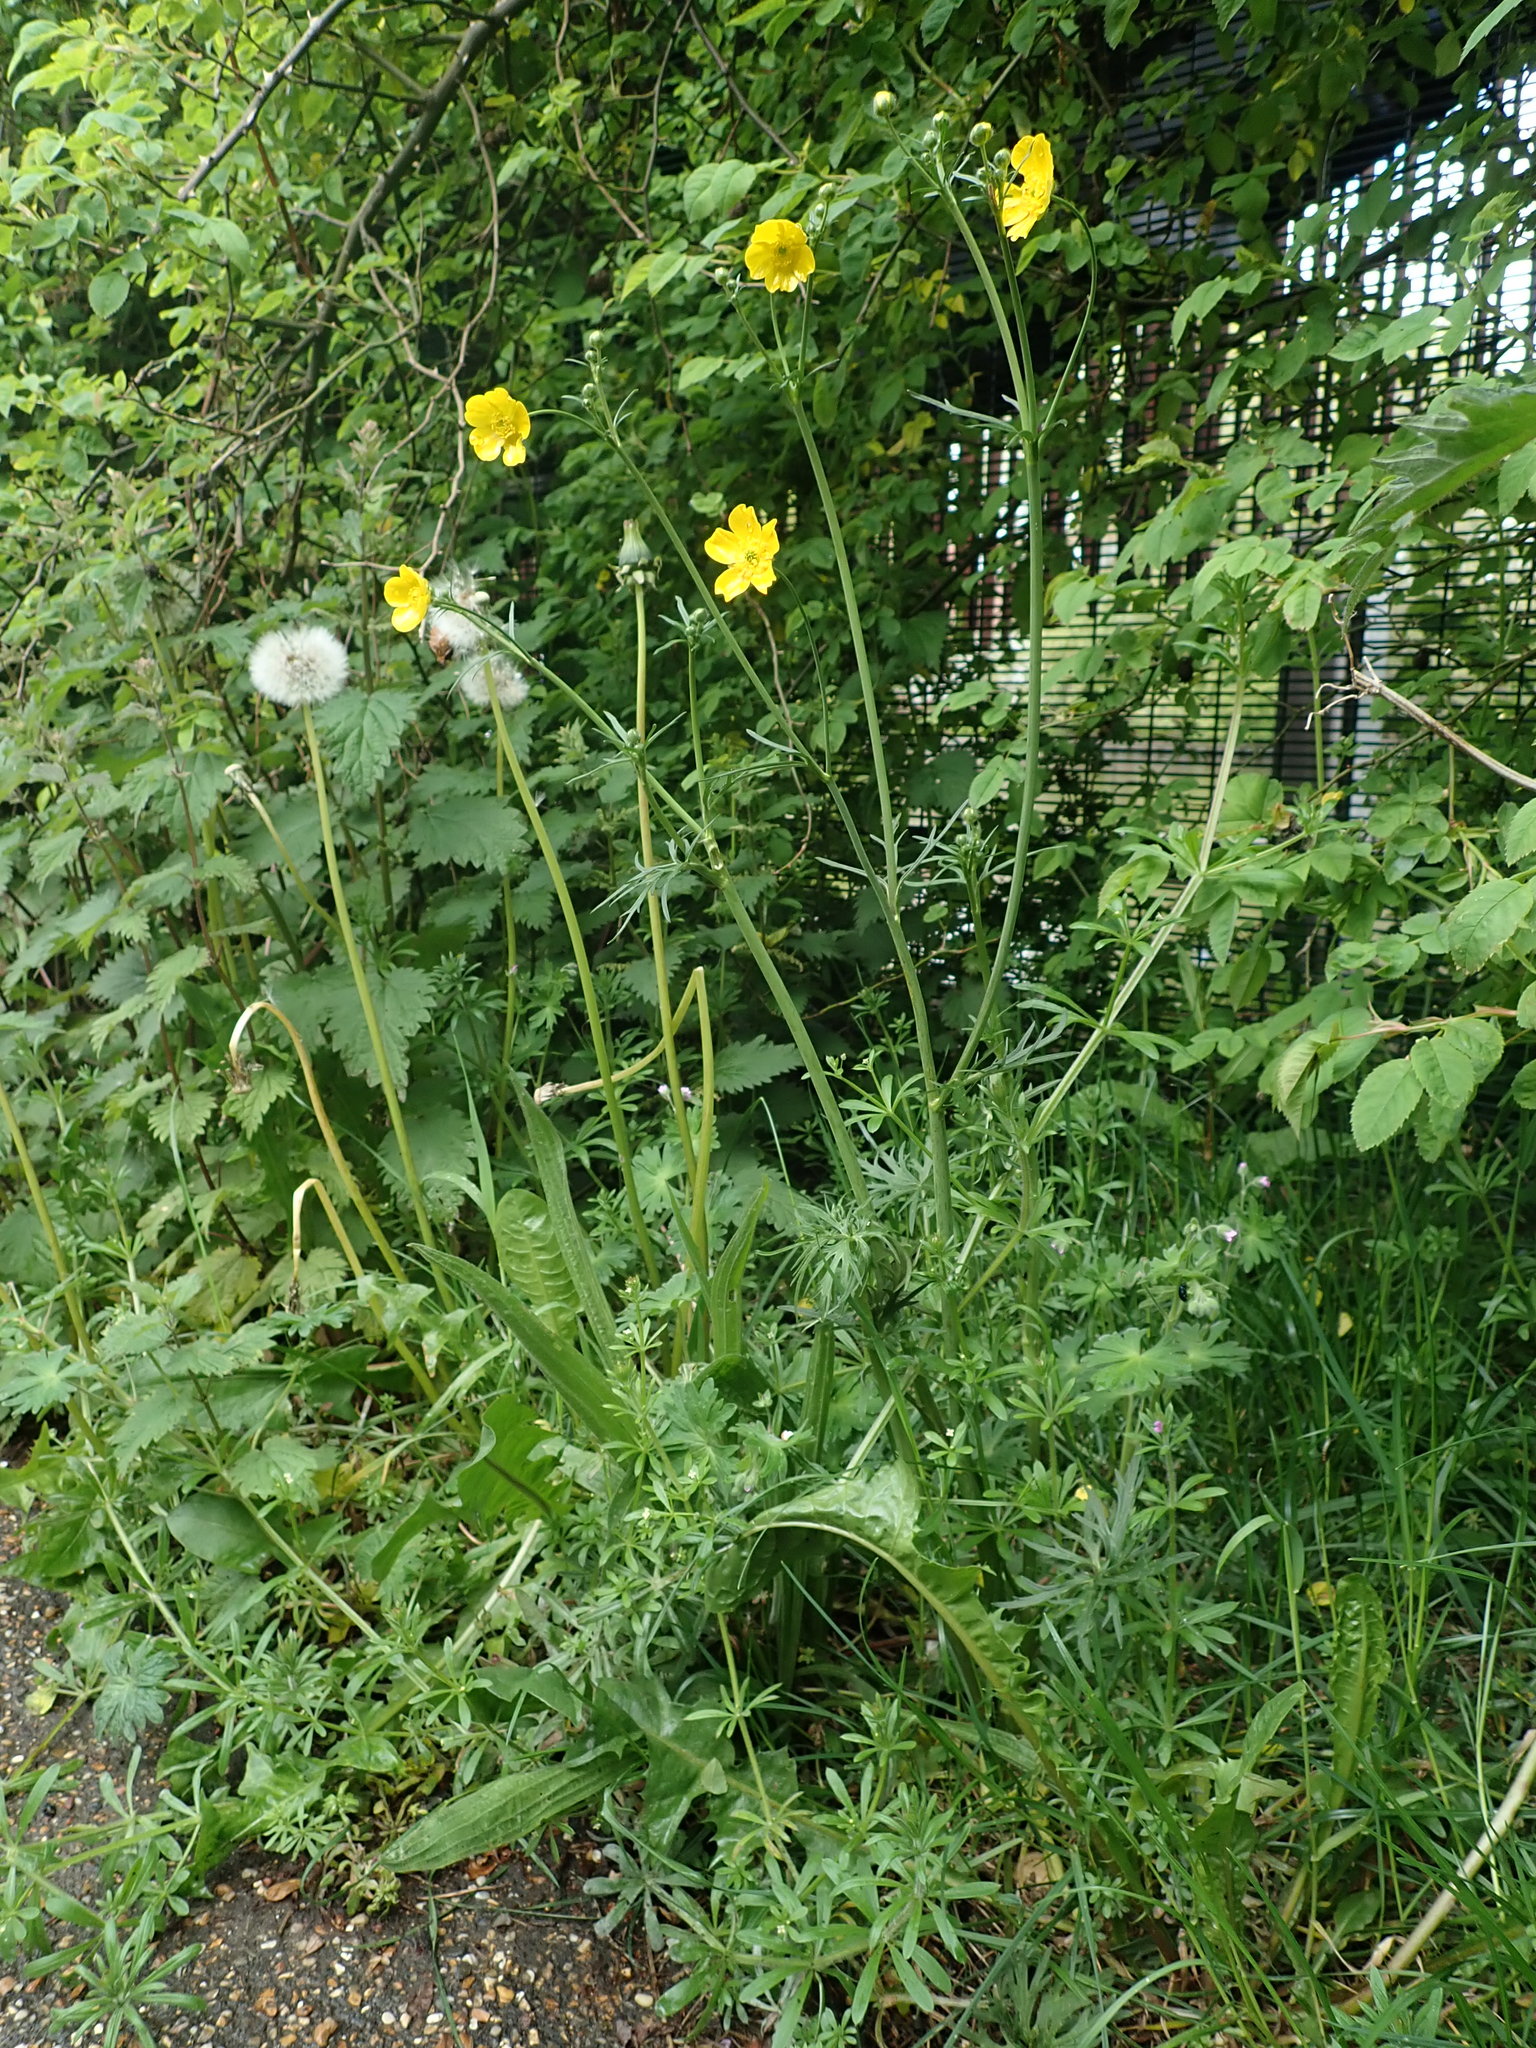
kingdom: Plantae
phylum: Tracheophyta
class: Magnoliopsida
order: Ranunculales
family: Ranunculaceae
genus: Ranunculus
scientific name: Ranunculus acris
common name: Meadow buttercup
